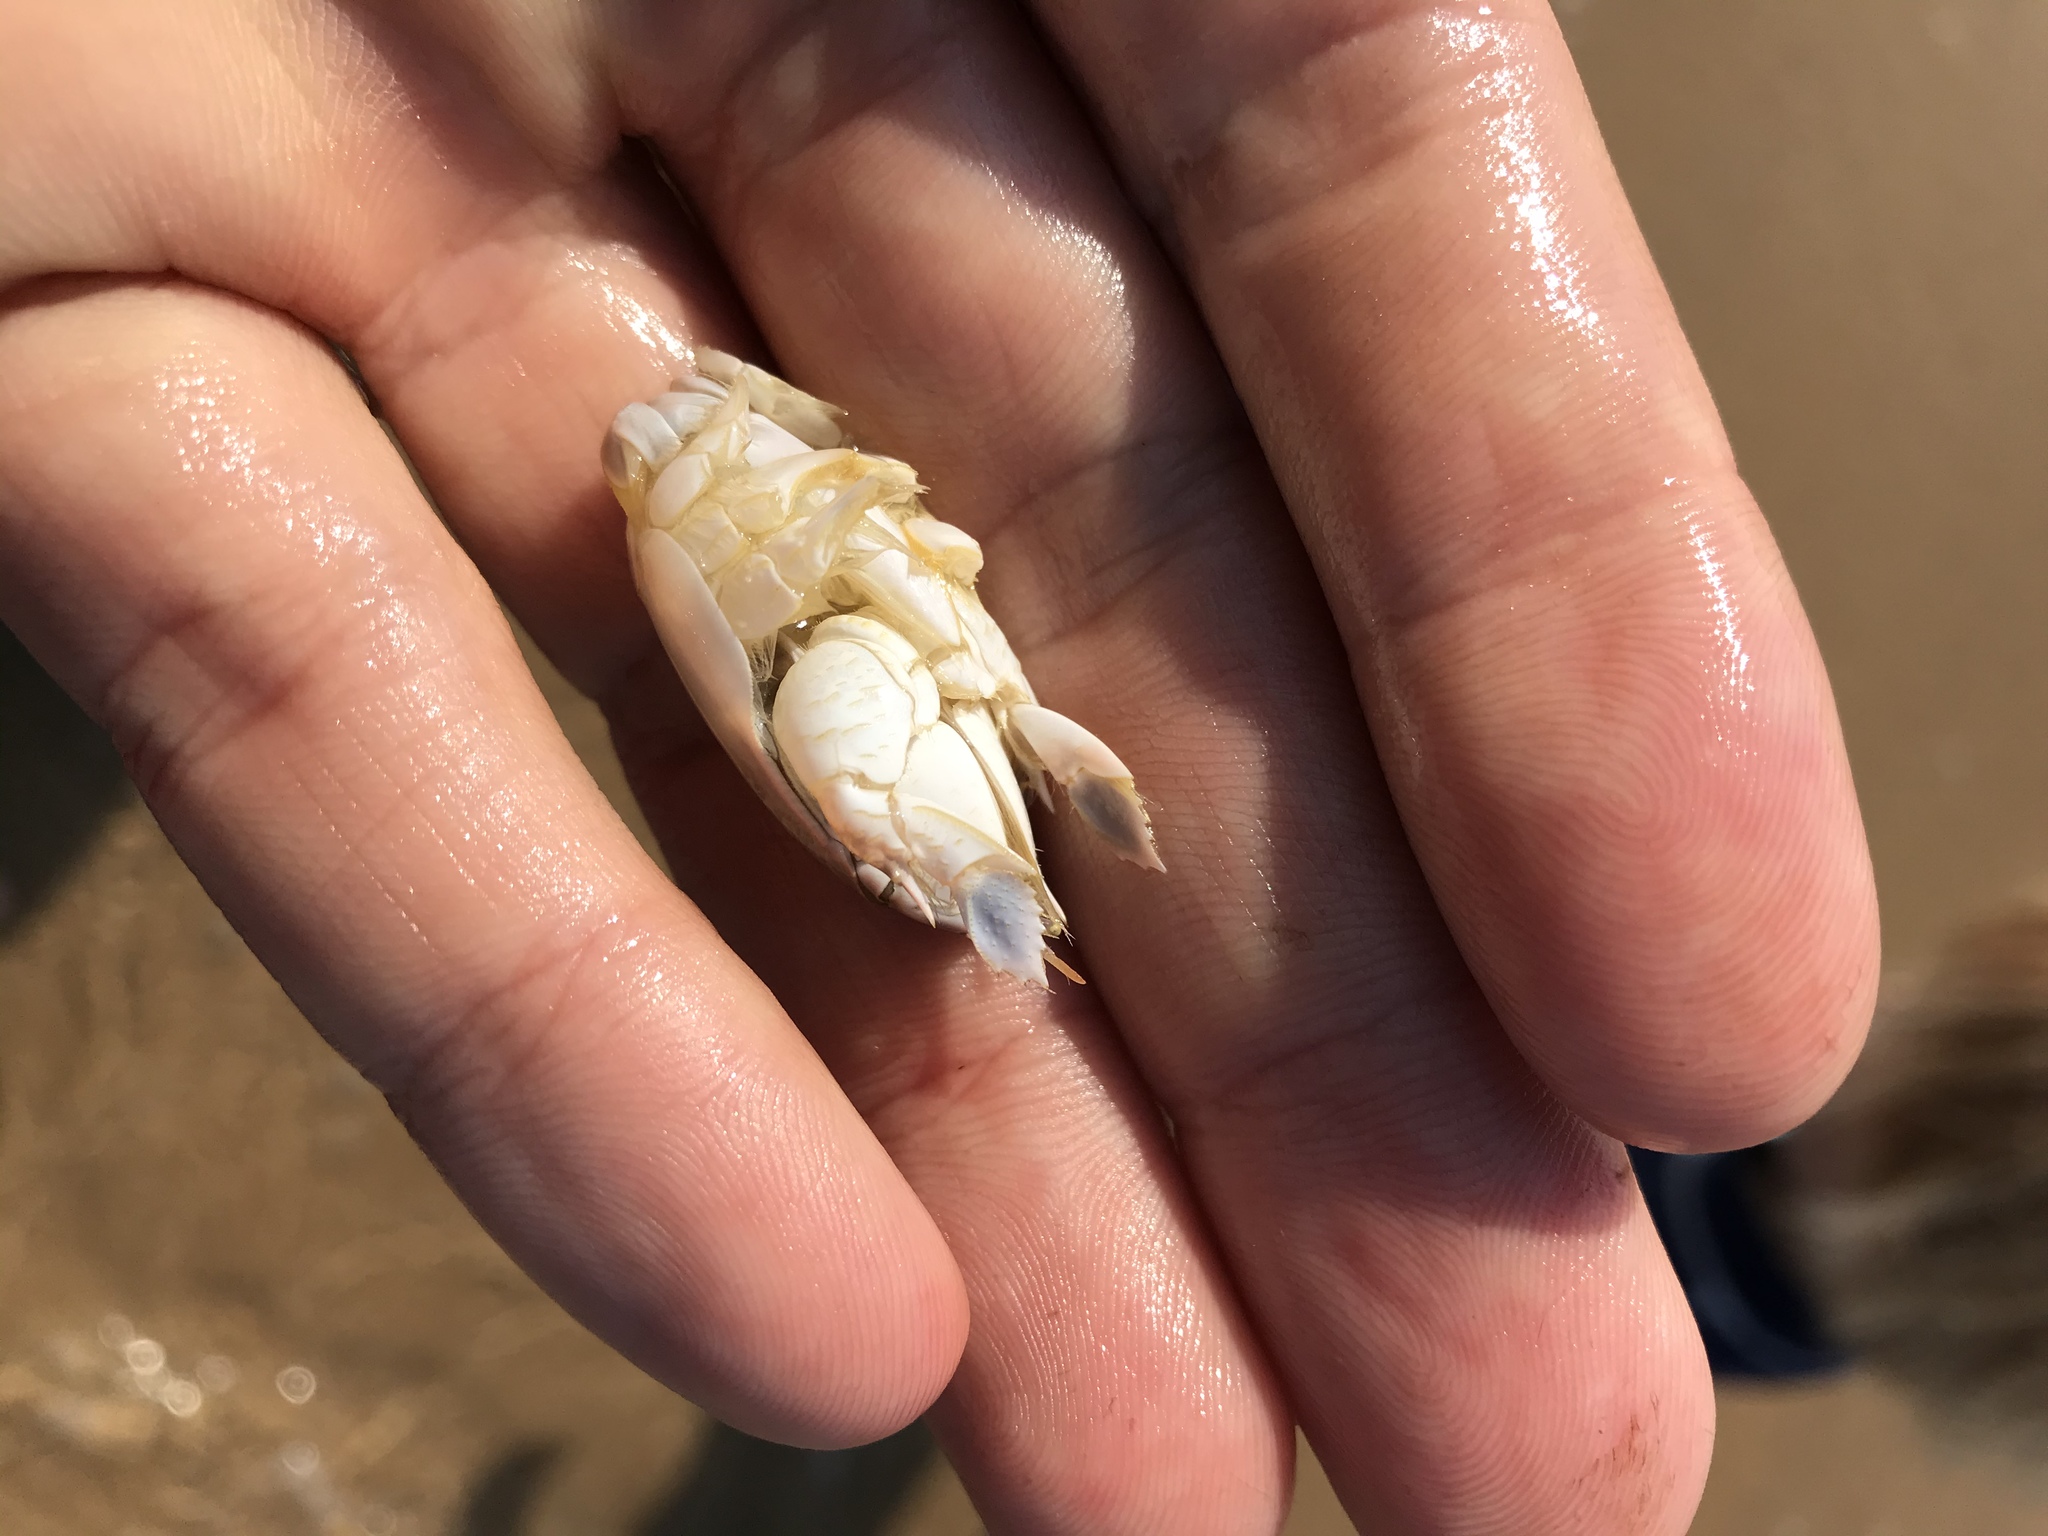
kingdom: Animalia
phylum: Arthropoda
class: Malacostraca
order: Decapoda
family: Hippidae
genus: Emerita
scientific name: Emerita austroafricana
